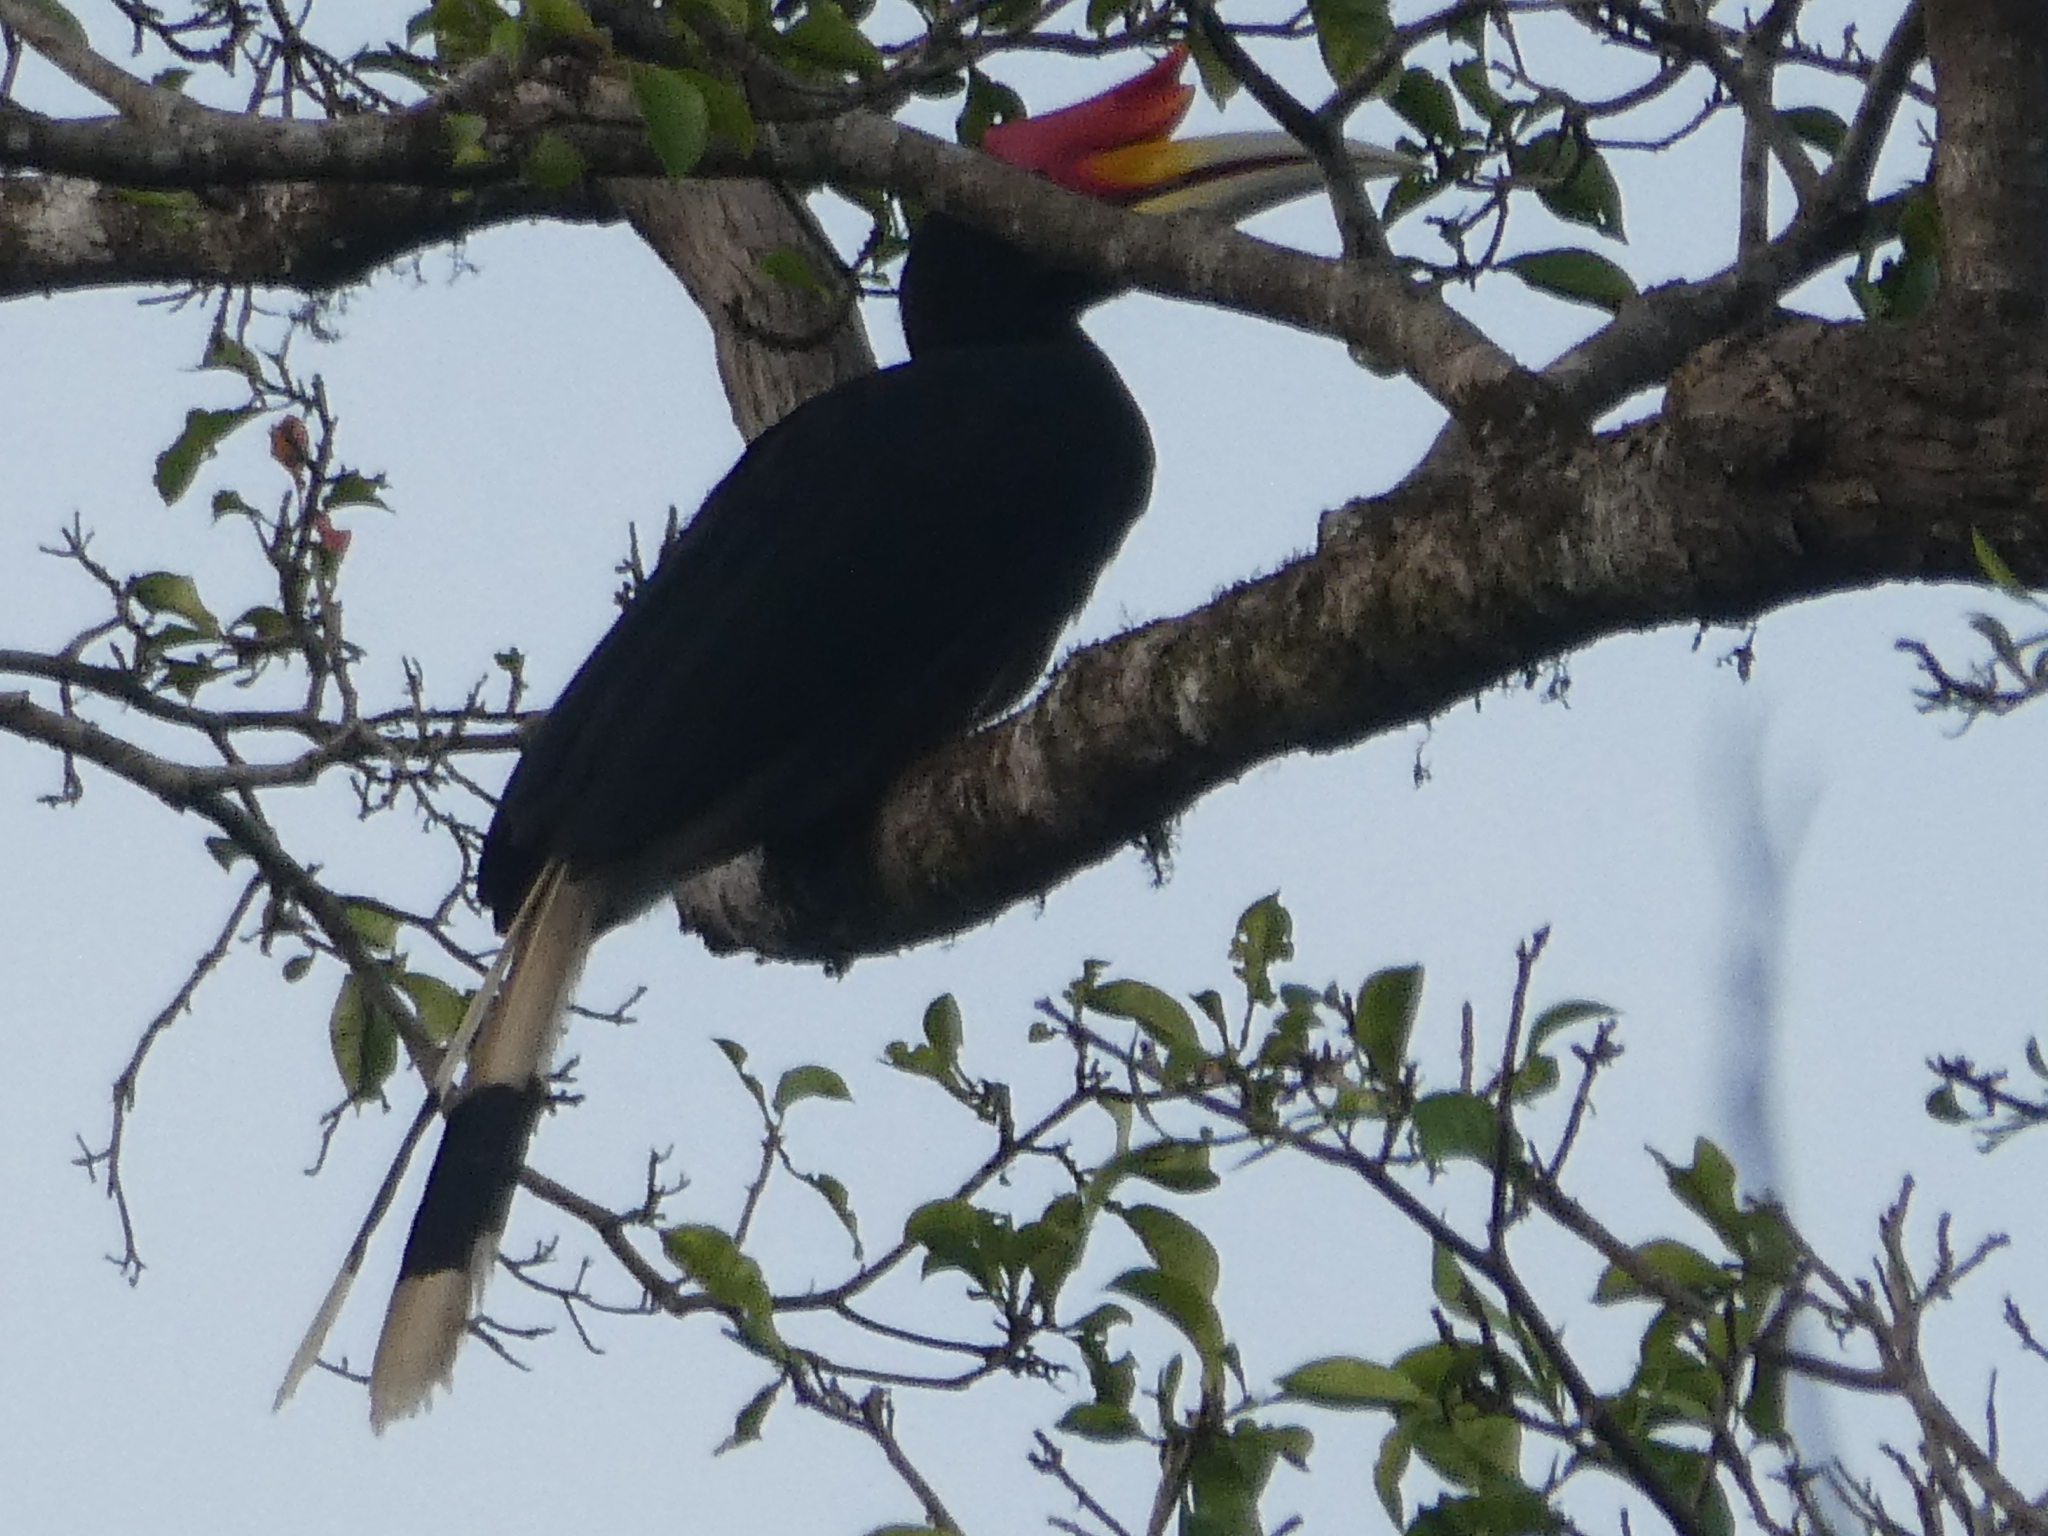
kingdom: Animalia
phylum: Chordata
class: Aves
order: Bucerotiformes
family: Bucerotidae
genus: Buceros
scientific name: Buceros rhinoceros
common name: Rhinoceros hornbill
